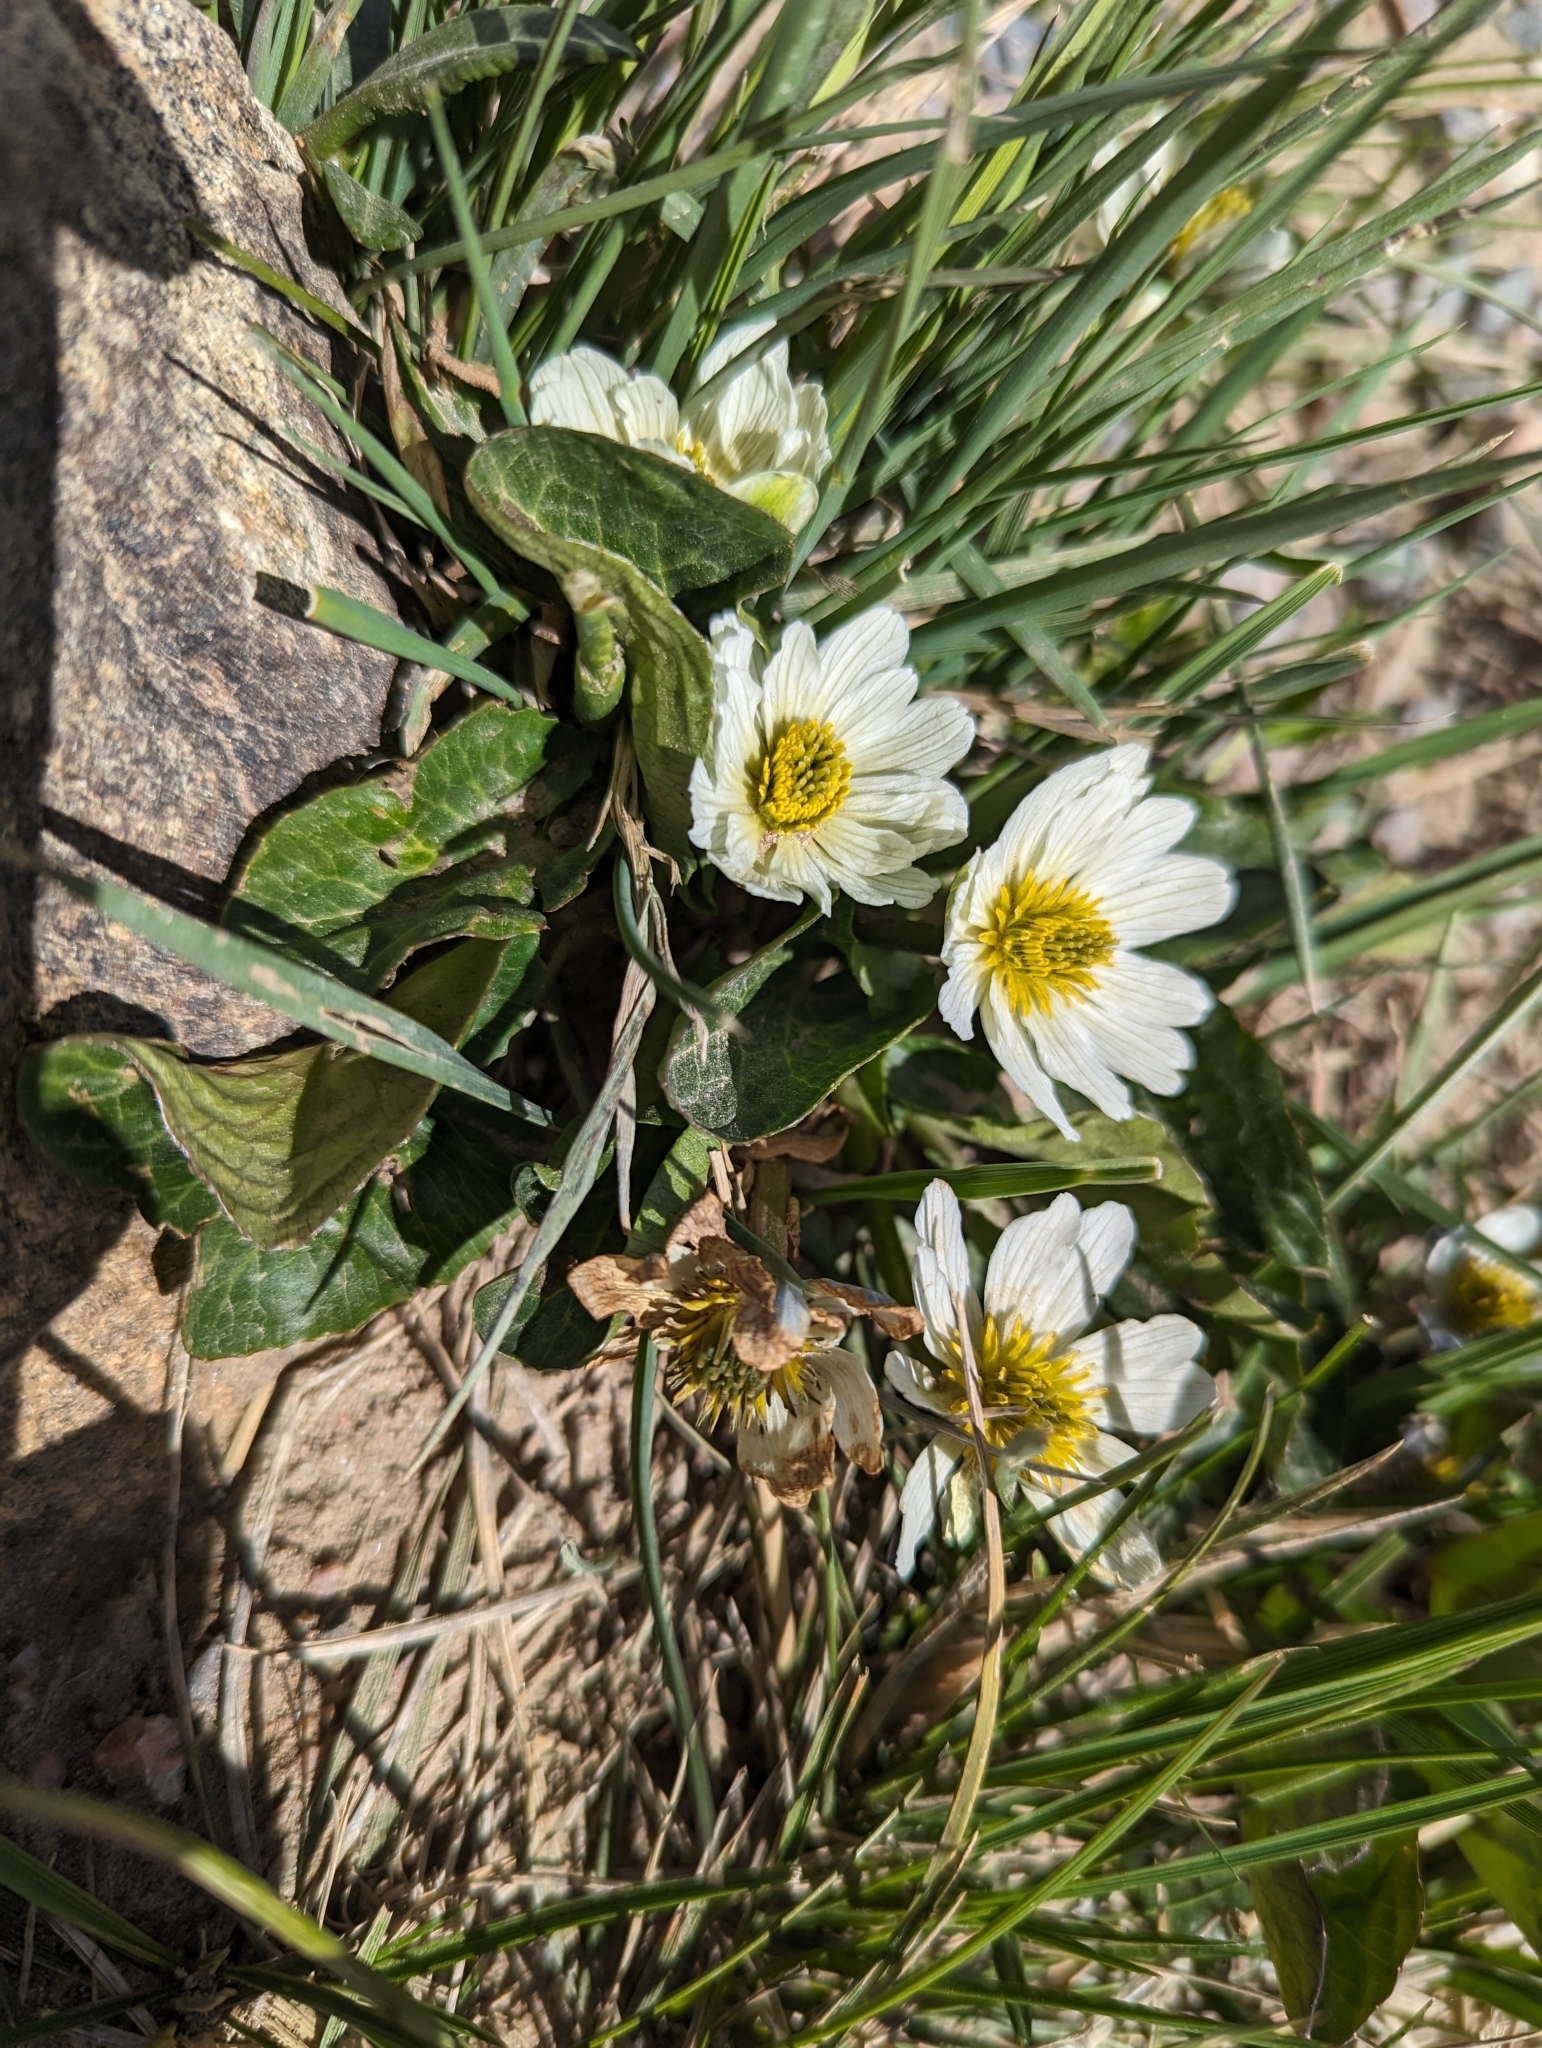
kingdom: Plantae
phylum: Tracheophyta
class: Magnoliopsida
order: Ranunculales
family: Ranunculaceae
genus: Caltha
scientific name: Caltha leptosepala
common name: Elkslip
